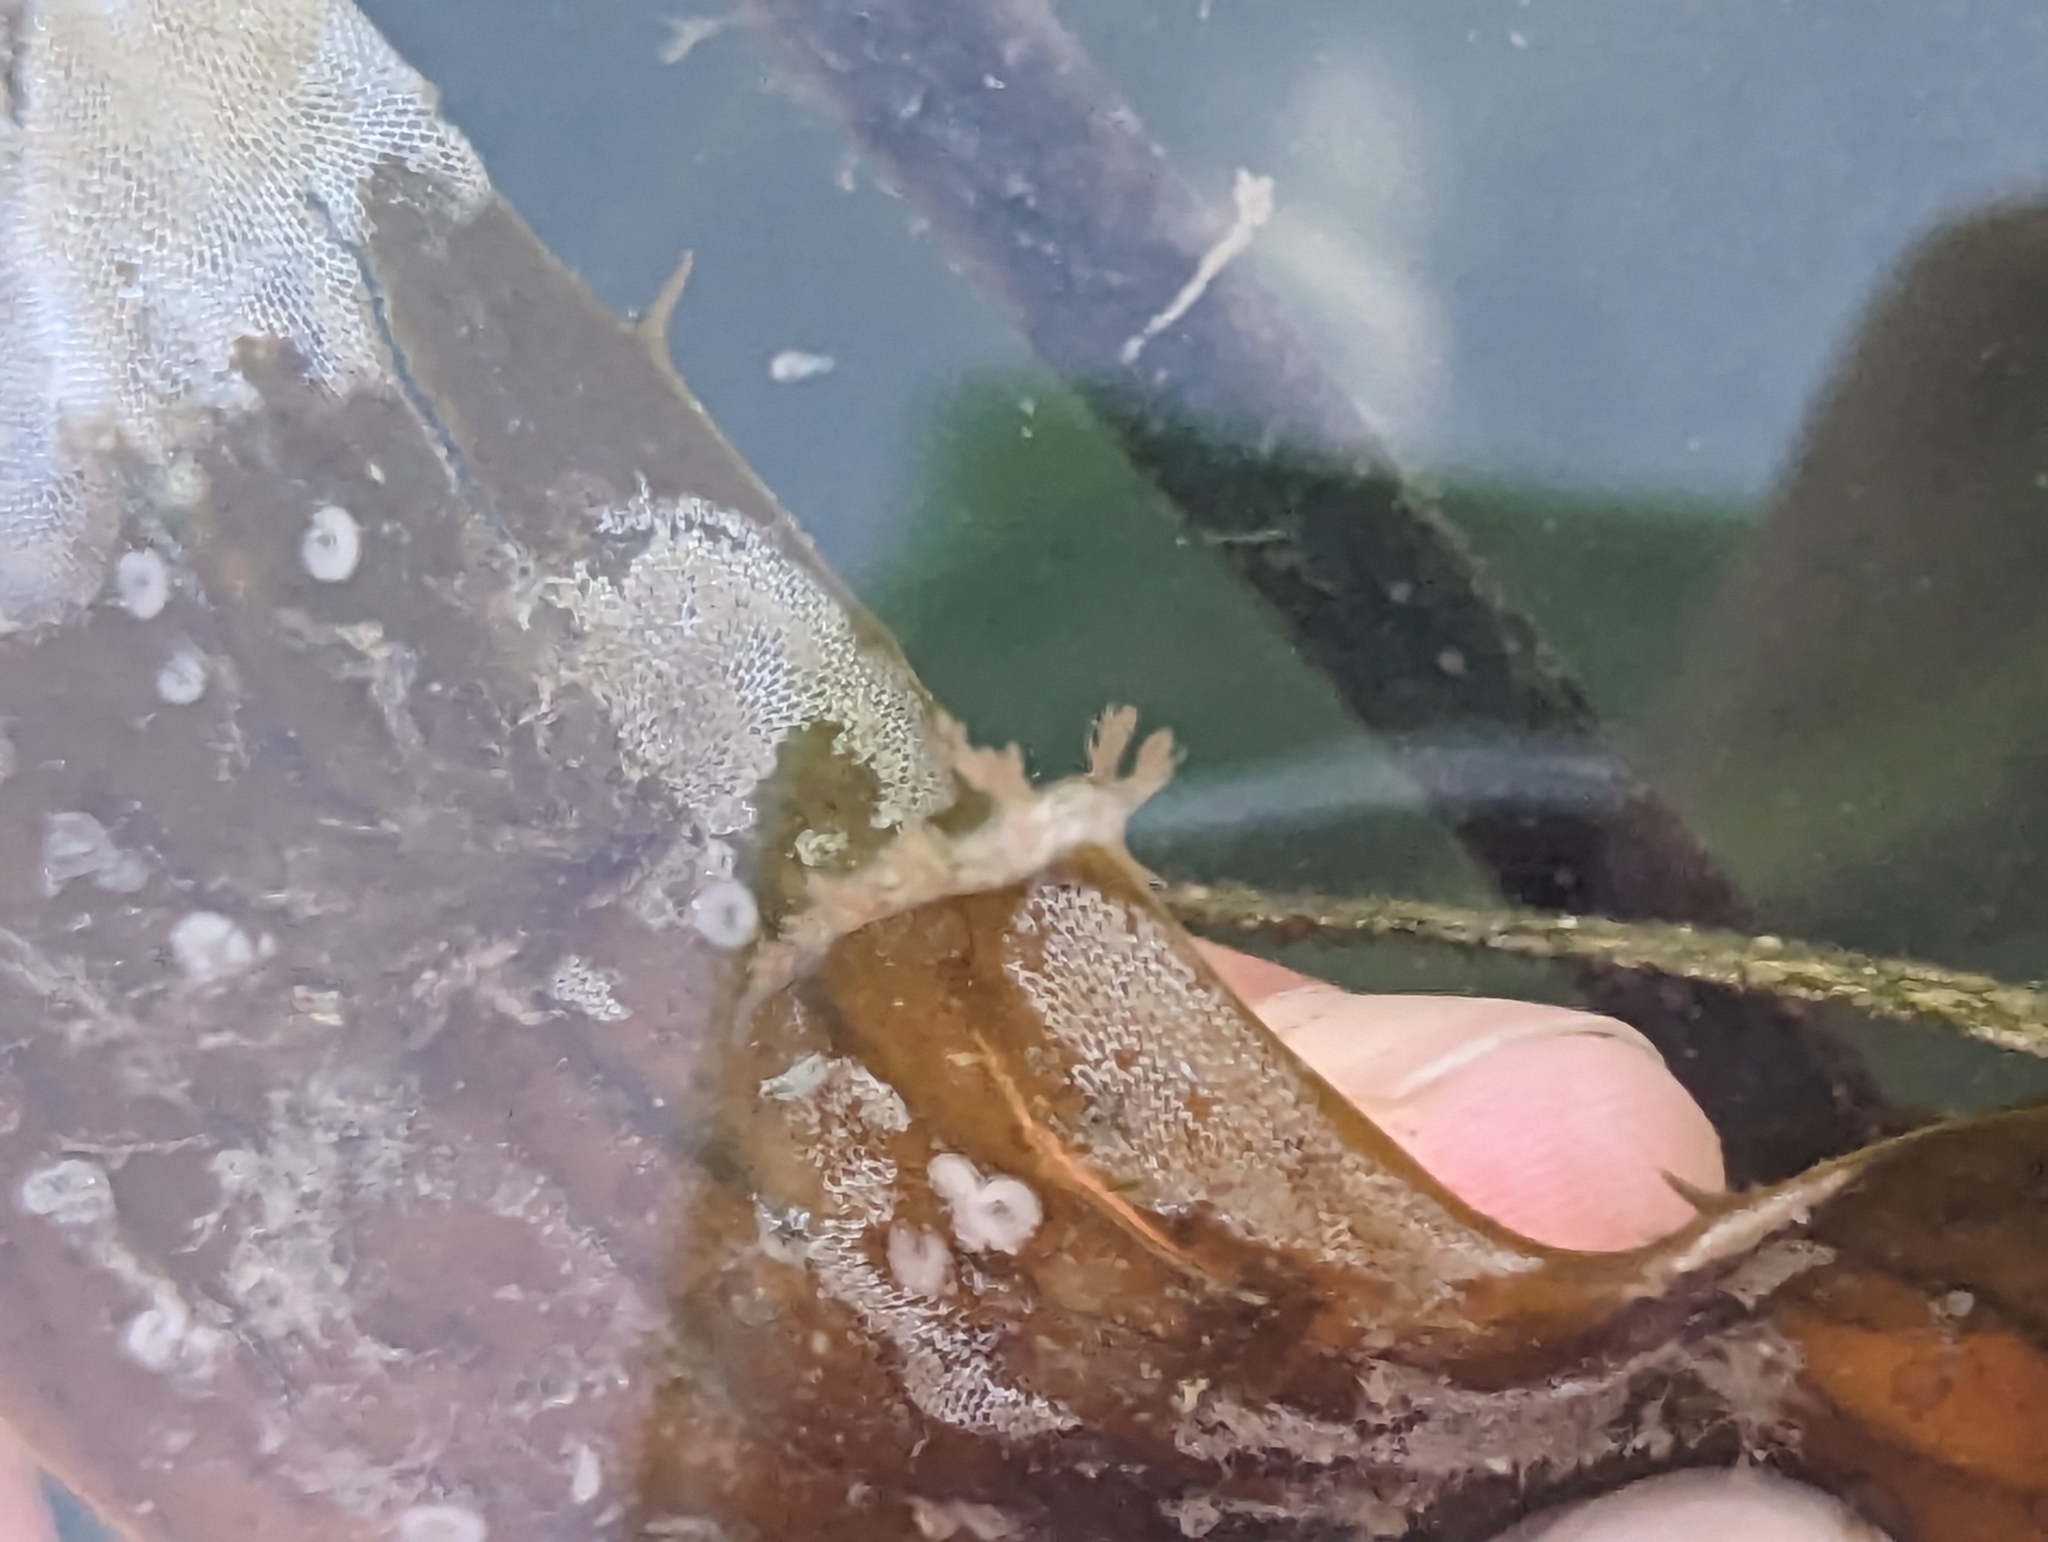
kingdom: Animalia
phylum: Bryozoa
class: Gymnolaemata
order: Cheilostomatida
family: Membraniporidae
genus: Membranipora
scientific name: Membranipora membranacea
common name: Sea mat
